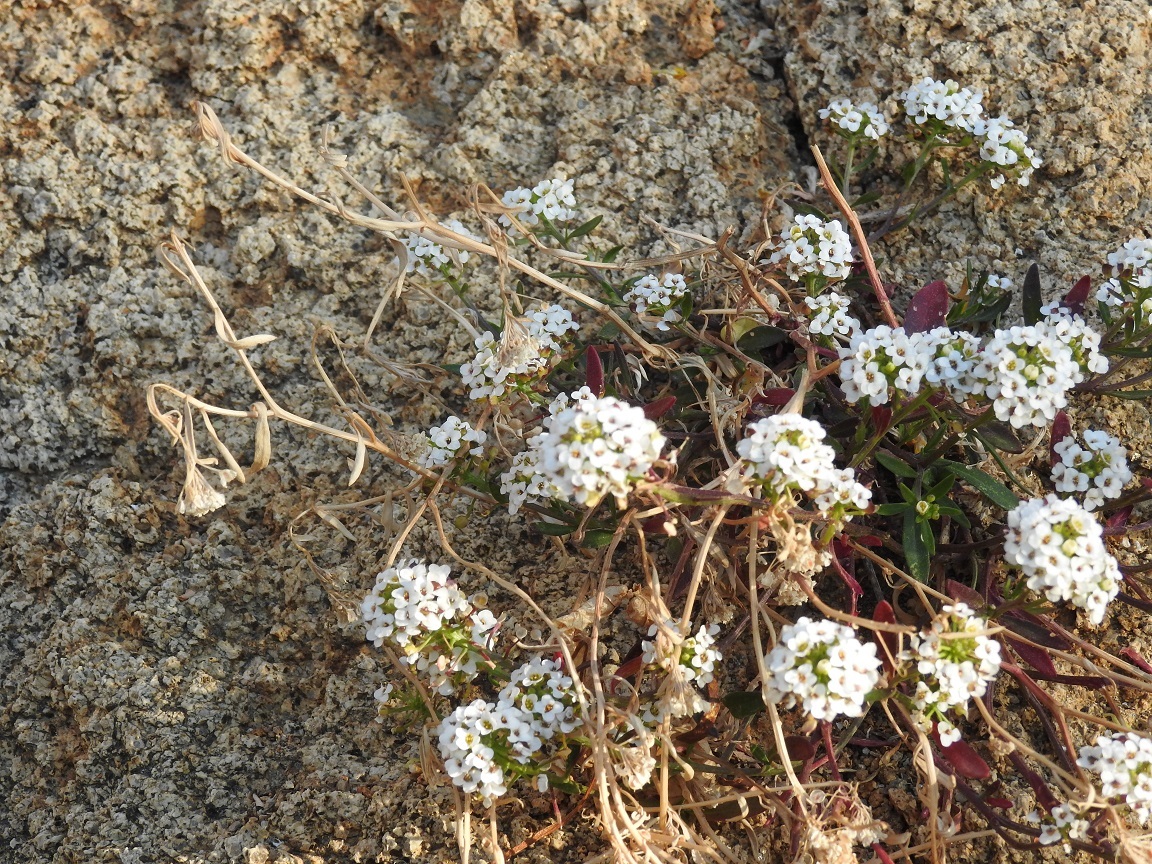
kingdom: Plantae
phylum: Tracheophyta
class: Magnoliopsida
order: Brassicales
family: Brassicaceae
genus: Lobularia
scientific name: Lobularia maritima
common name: Sweet alison
